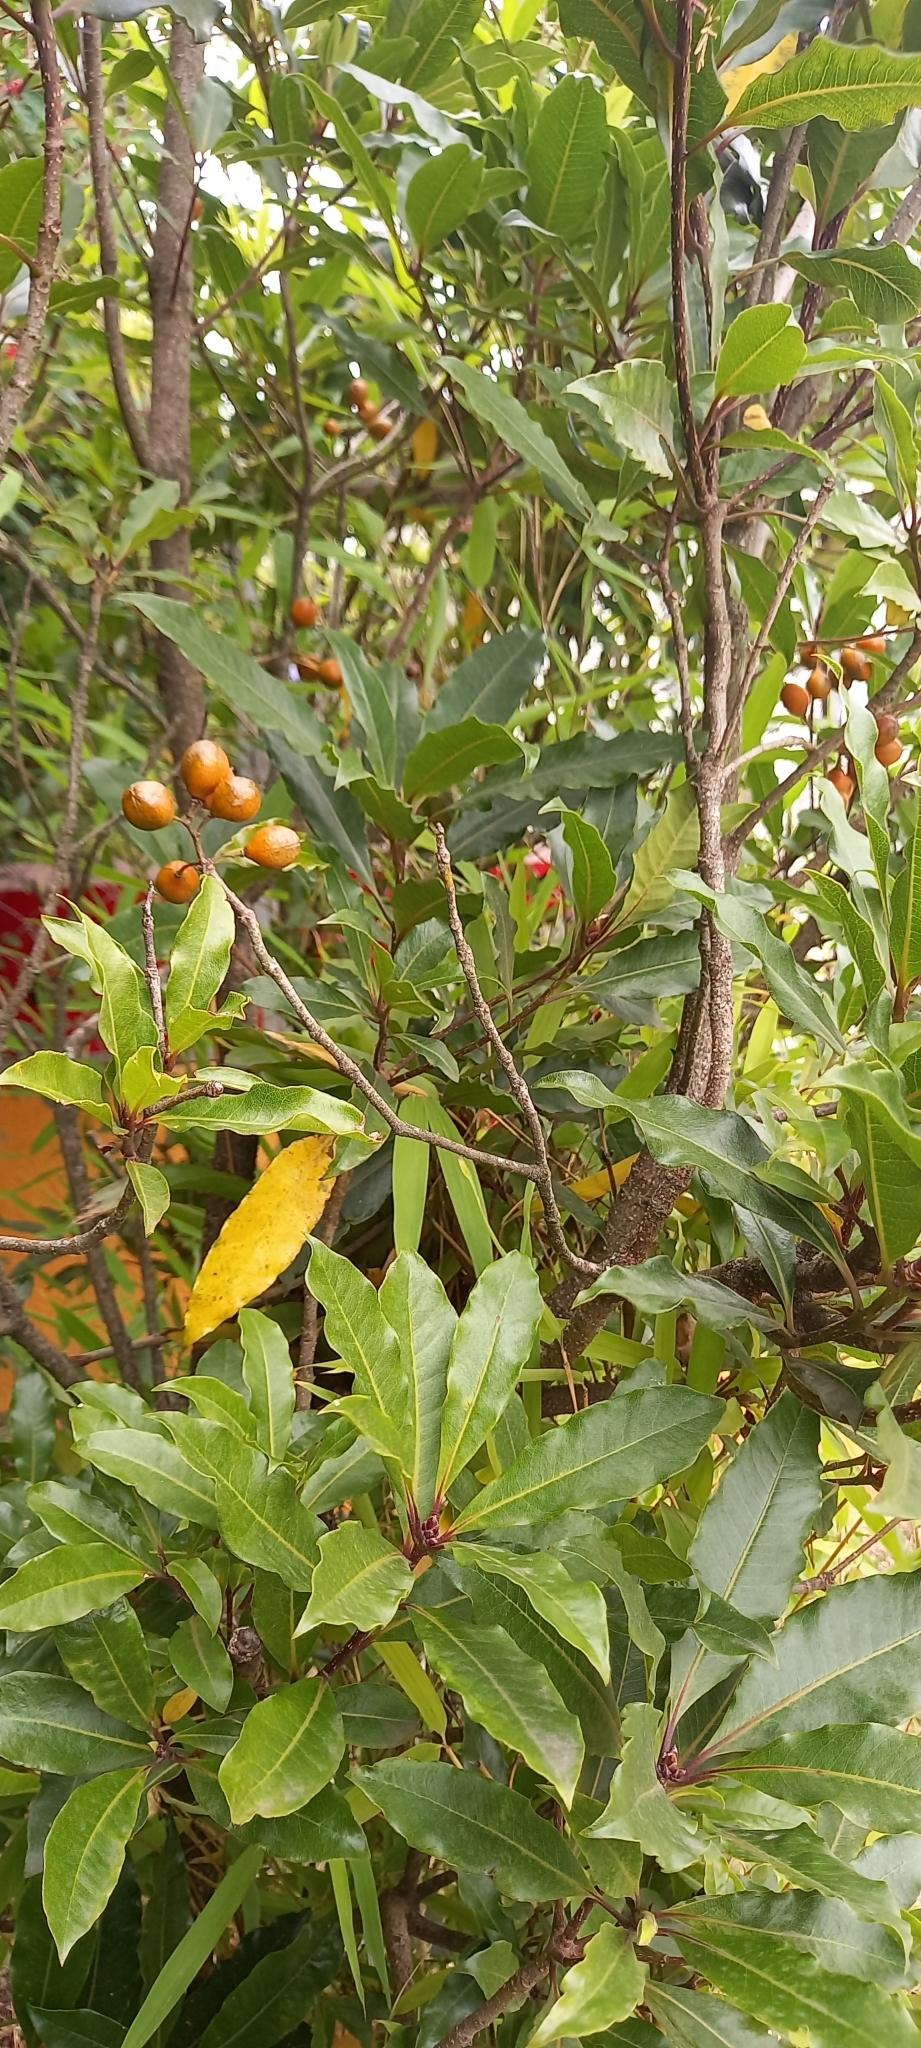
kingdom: Plantae
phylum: Tracheophyta
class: Magnoliopsida
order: Apiales
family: Pittosporaceae
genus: Pittosporum
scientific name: Pittosporum undulatum
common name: Australian cheesewood
